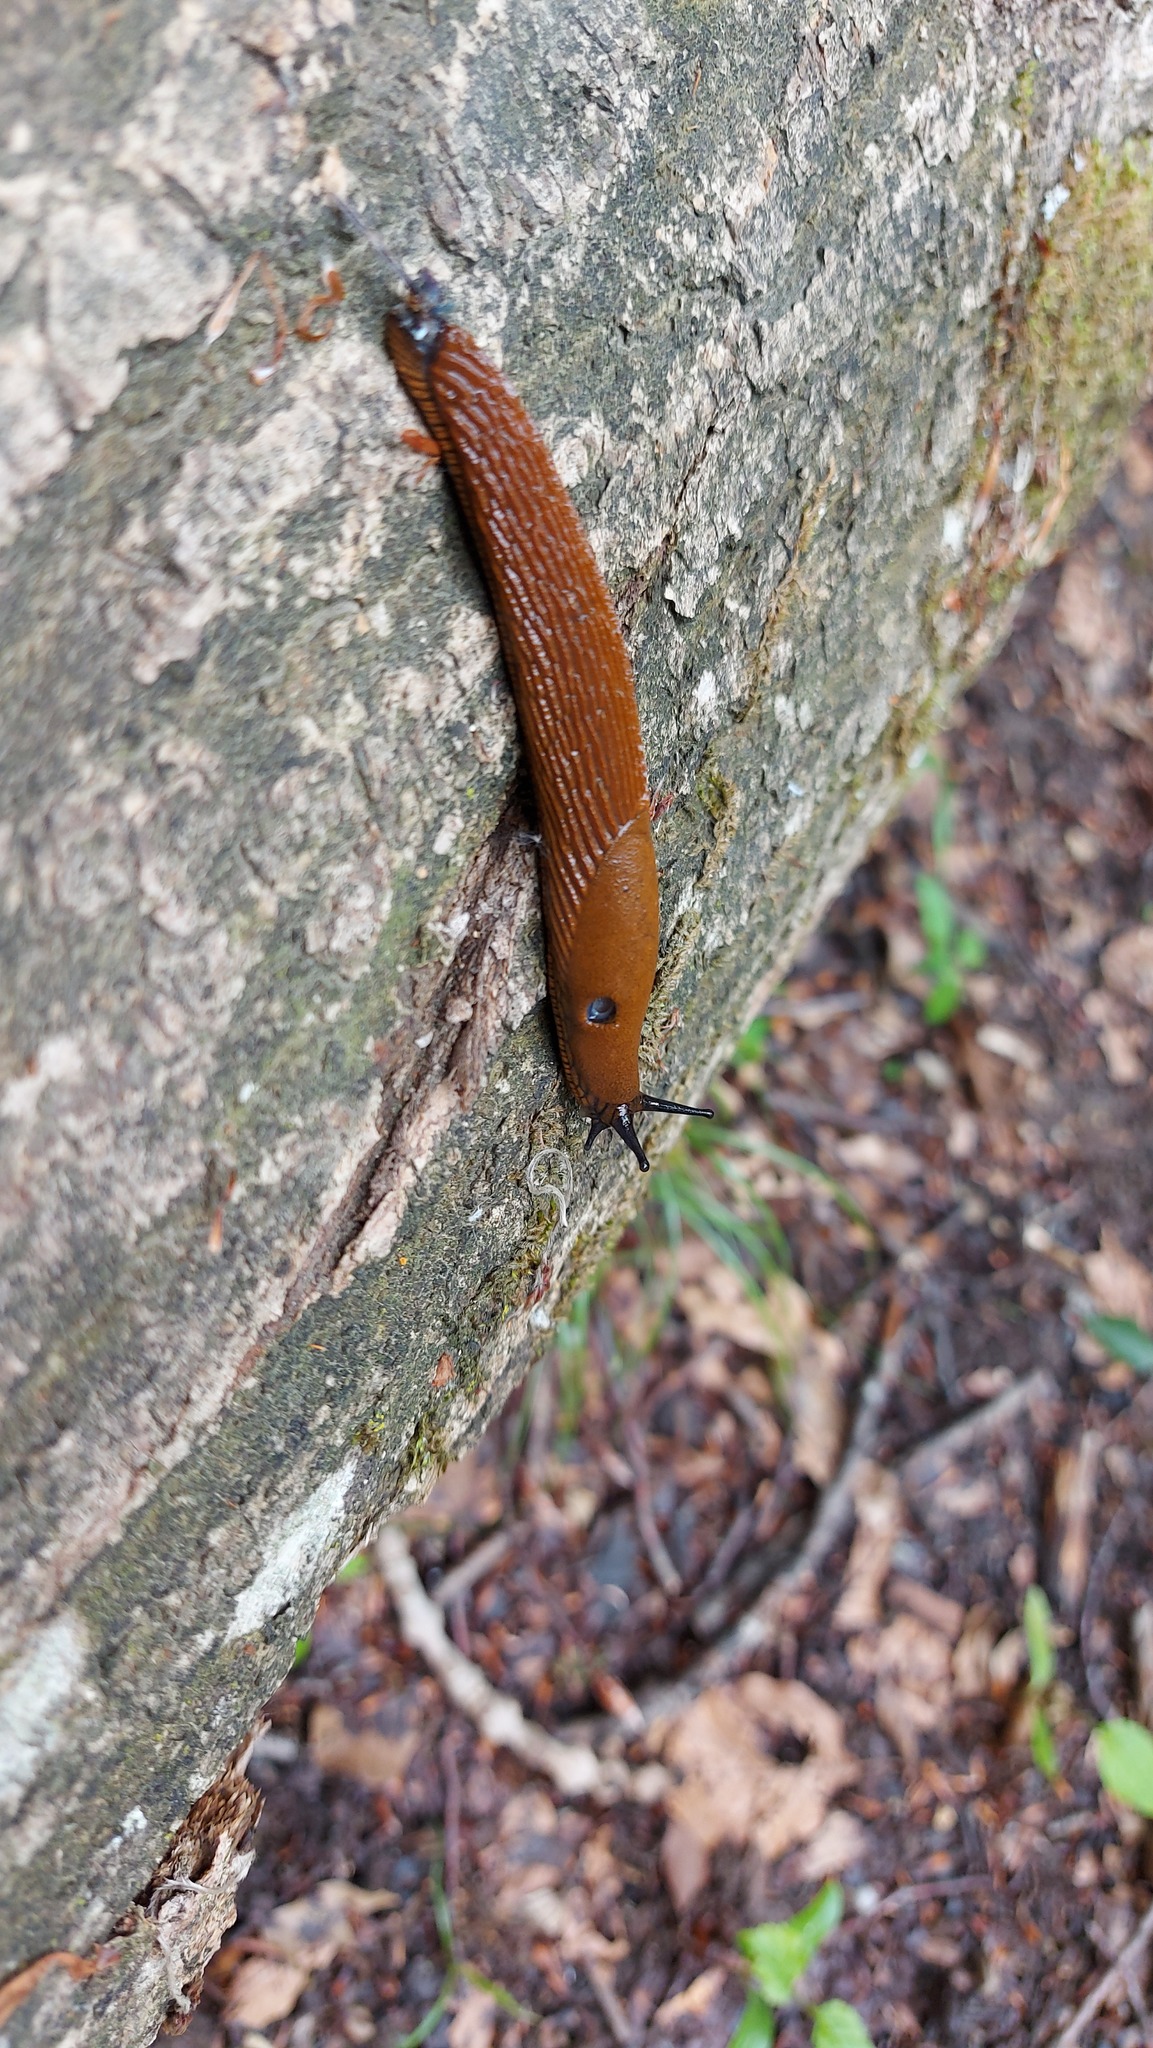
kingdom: Animalia
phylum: Mollusca
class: Gastropoda
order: Stylommatophora
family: Arionidae
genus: Arion
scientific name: Arion
